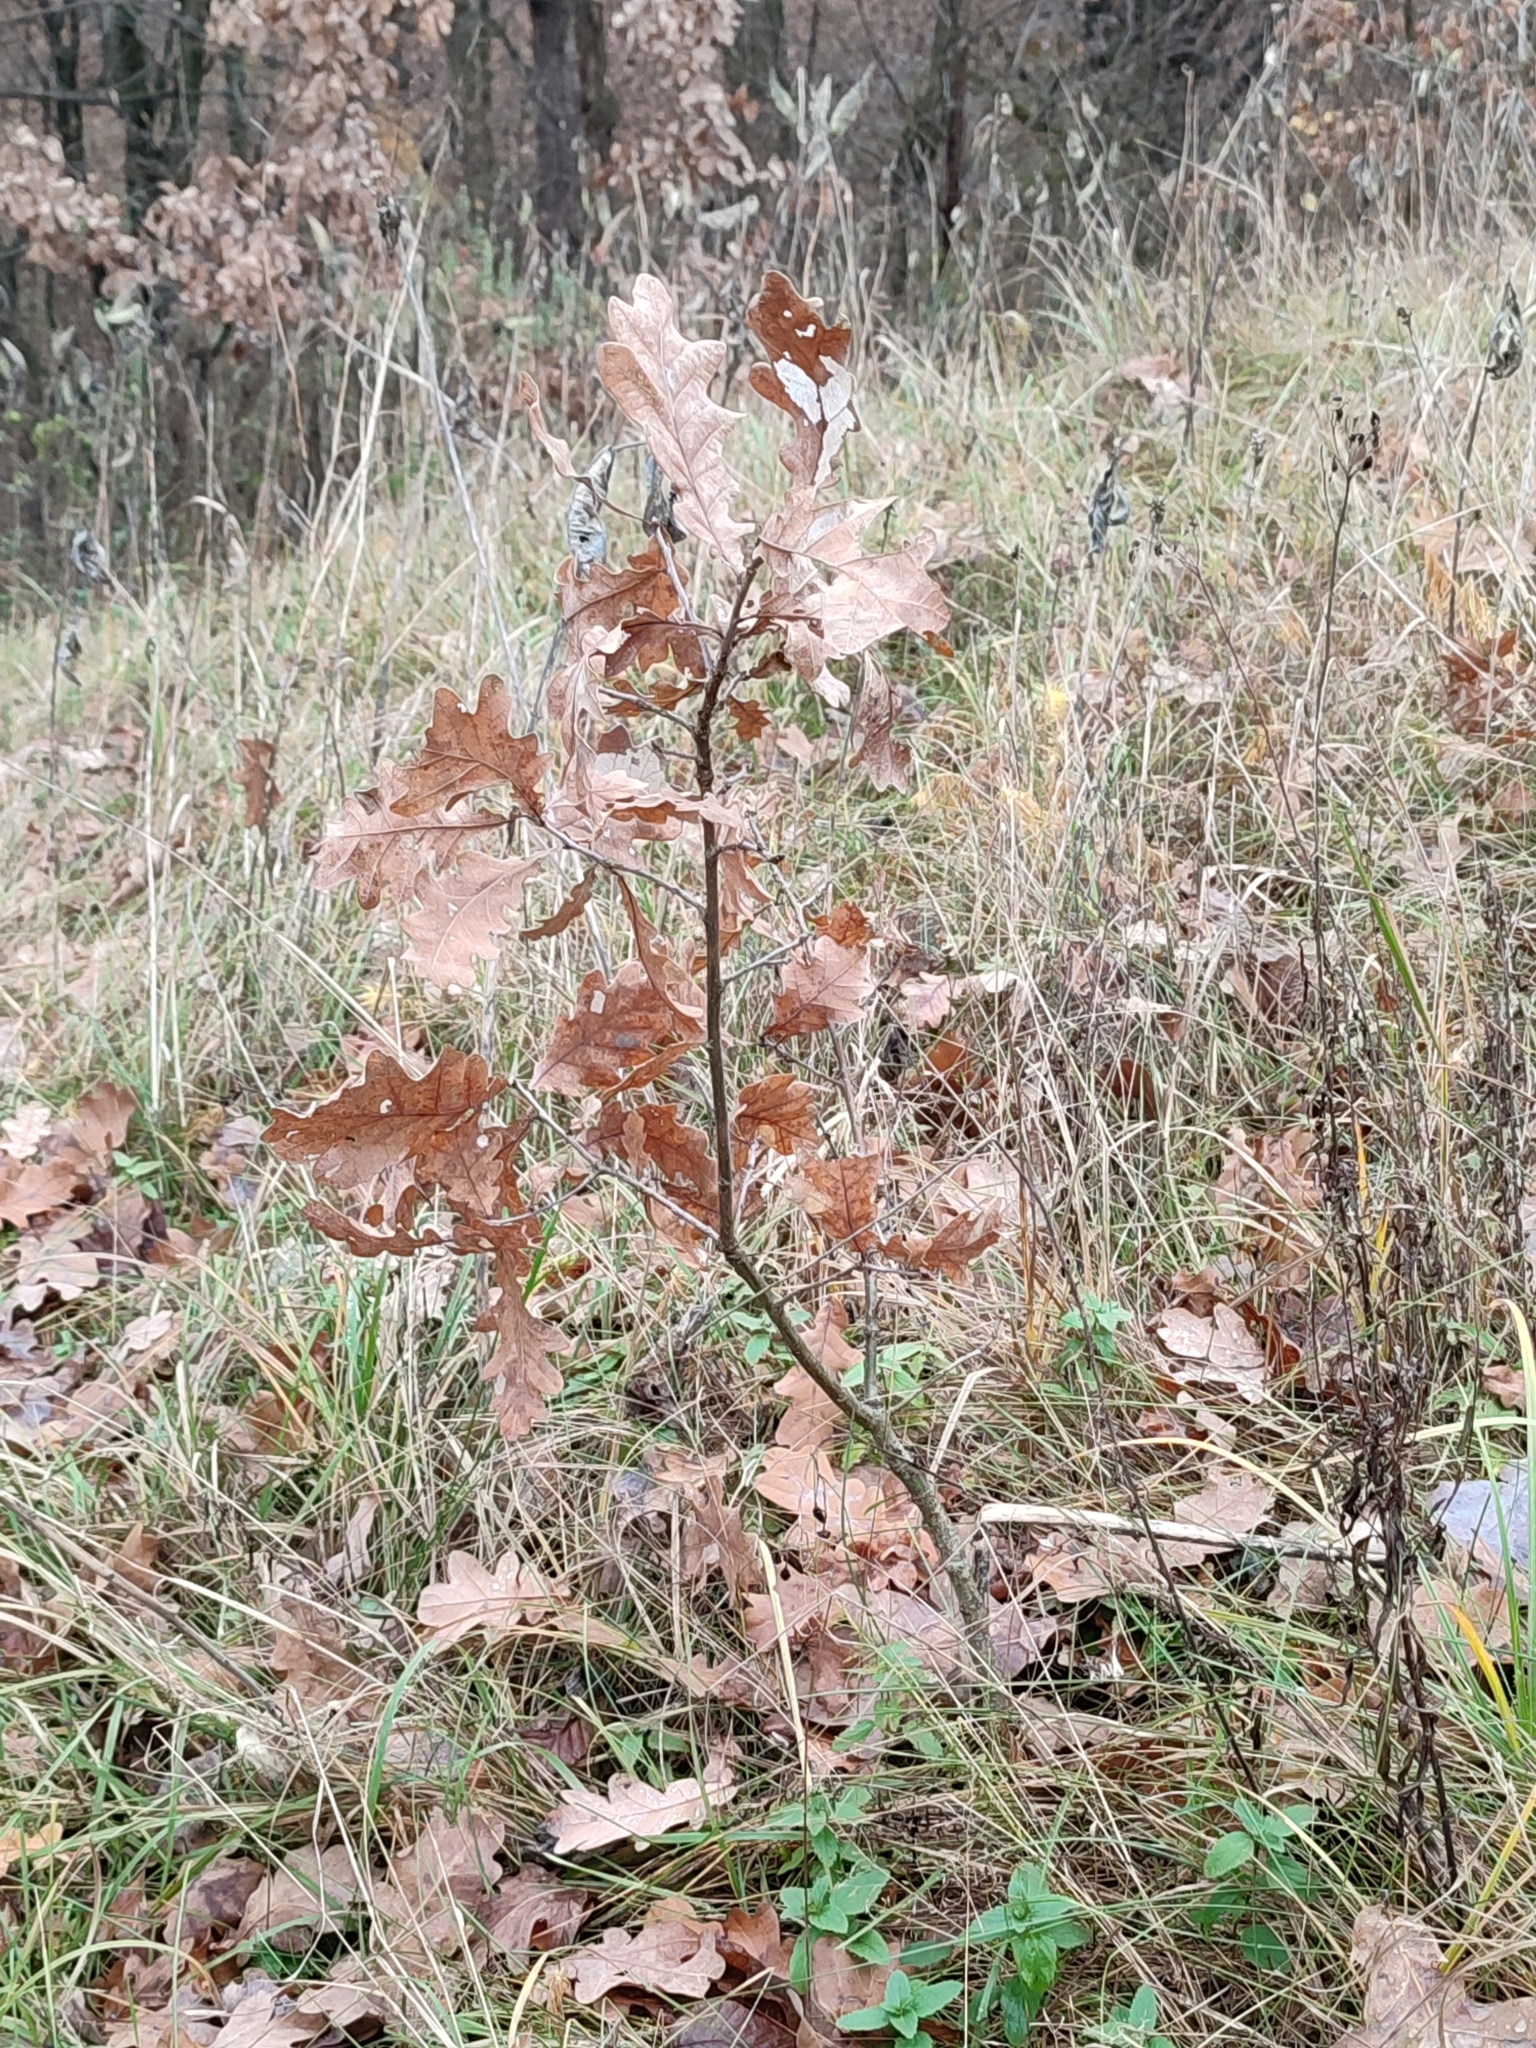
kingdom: Plantae
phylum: Tracheophyta
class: Magnoliopsida
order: Fagales
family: Fagaceae
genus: Quercus
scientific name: Quercus robur
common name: Pedunculate oak
